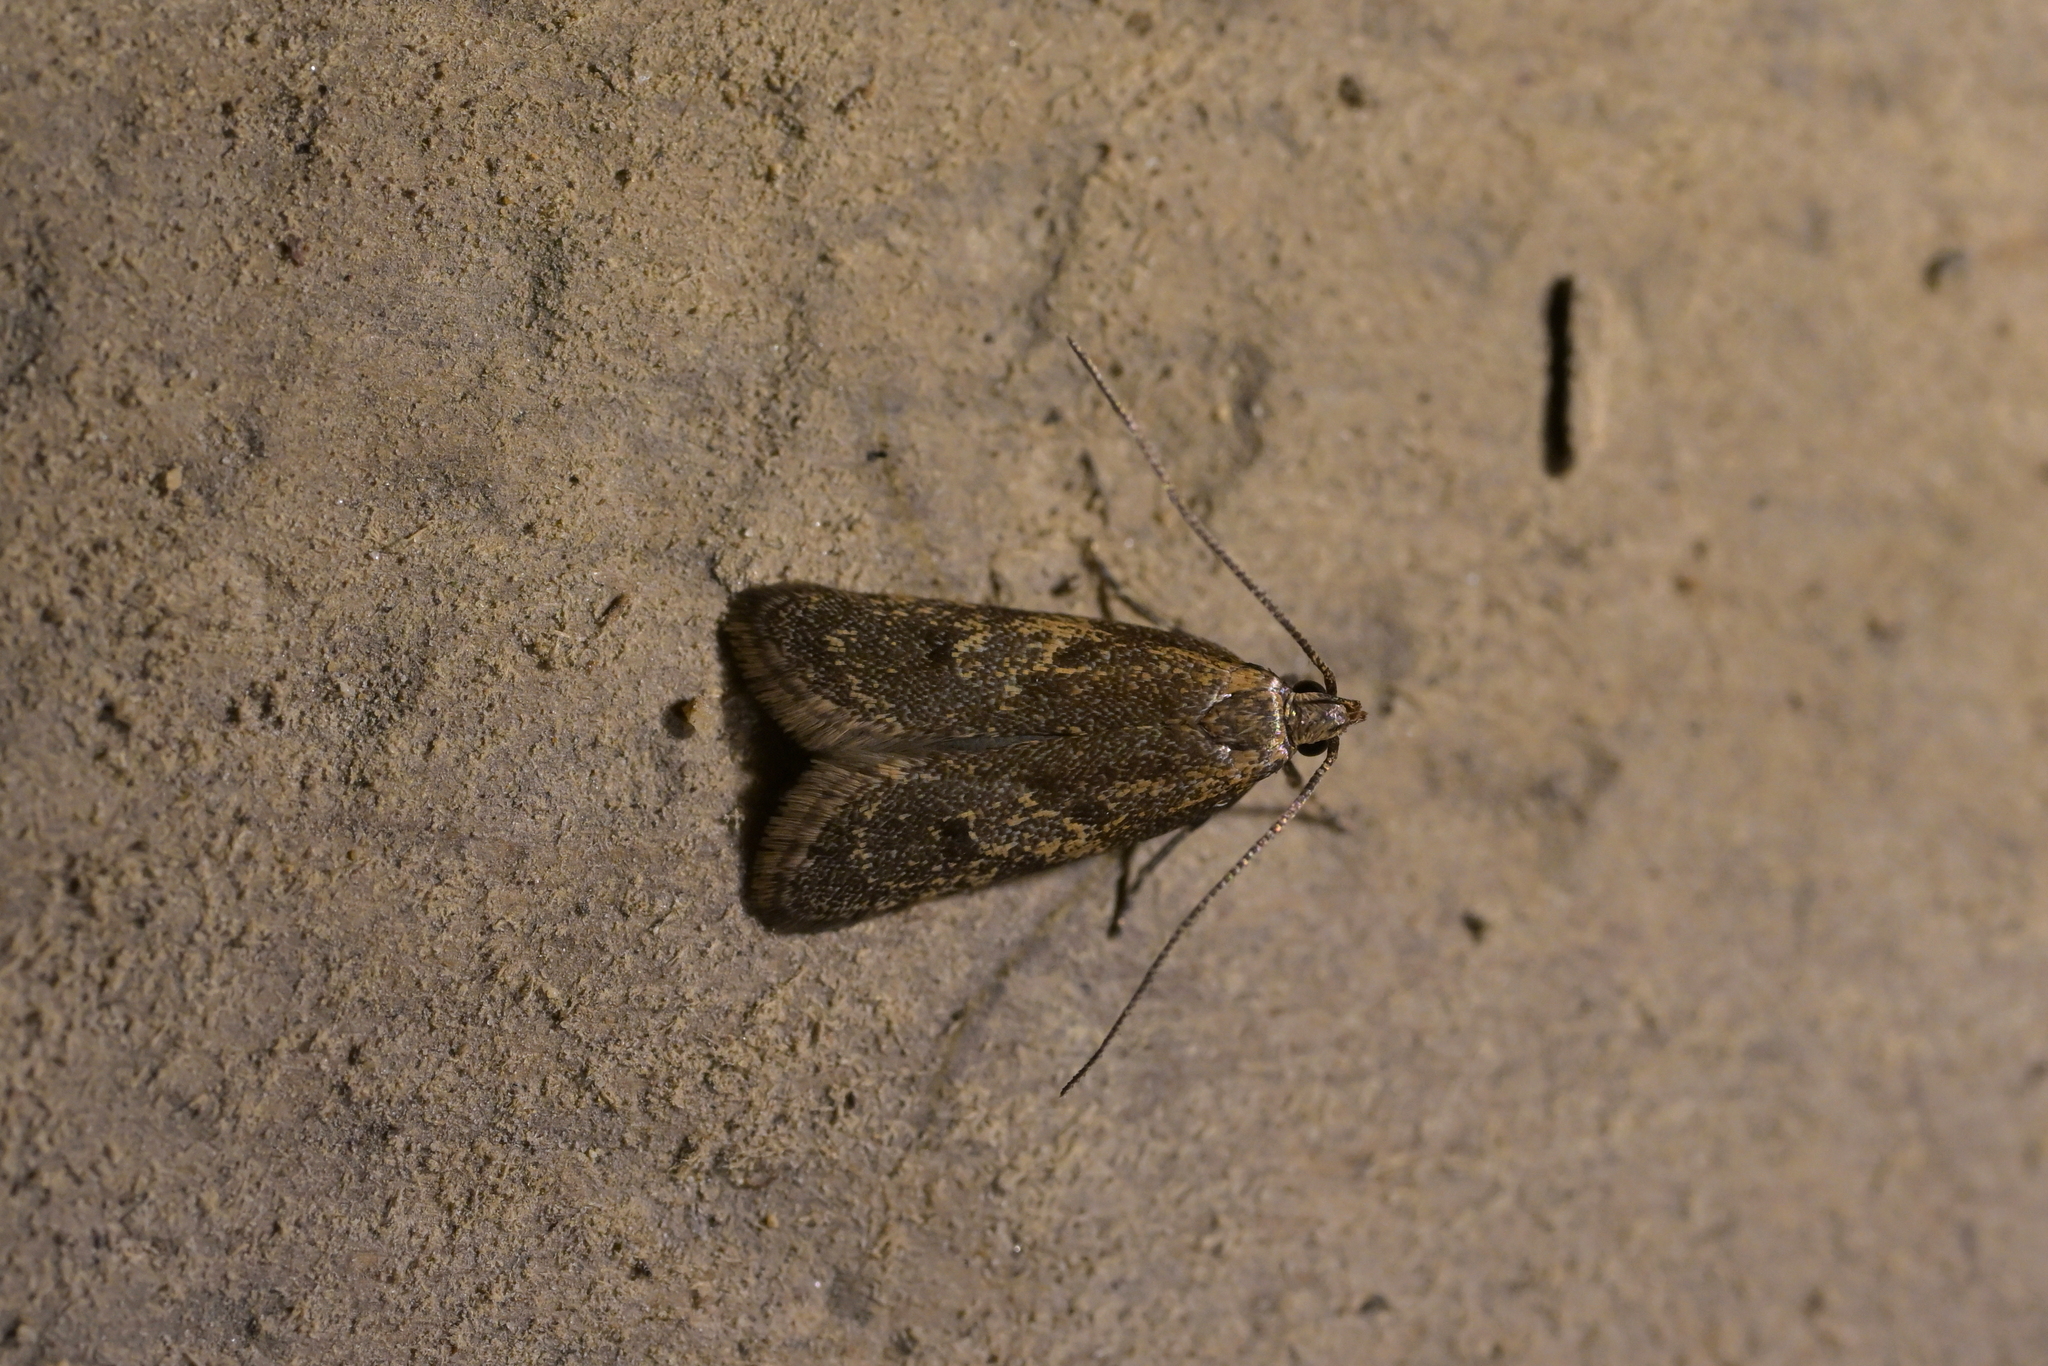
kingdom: Animalia
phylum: Arthropoda
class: Insecta
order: Lepidoptera
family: Oecophoridae
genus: Gymnobathra
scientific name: Gymnobathra tholodella
